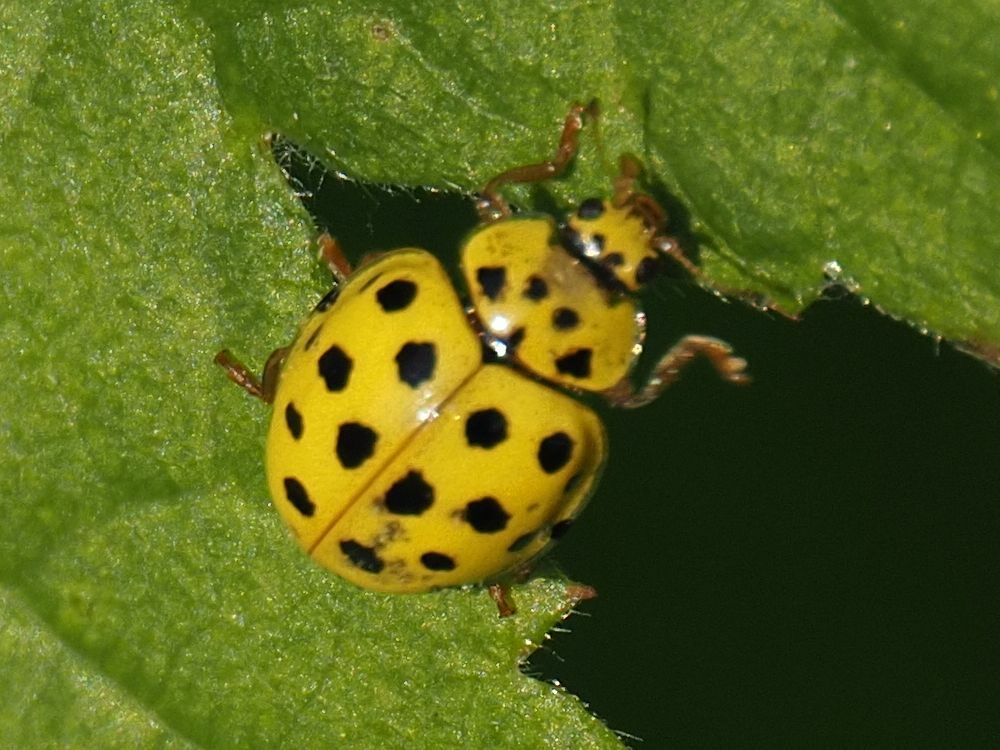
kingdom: Animalia
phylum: Arthropoda
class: Insecta
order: Coleoptera
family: Coccinellidae
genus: Psyllobora
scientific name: Psyllobora vigintiduopunctata
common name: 22-spot ladybird
